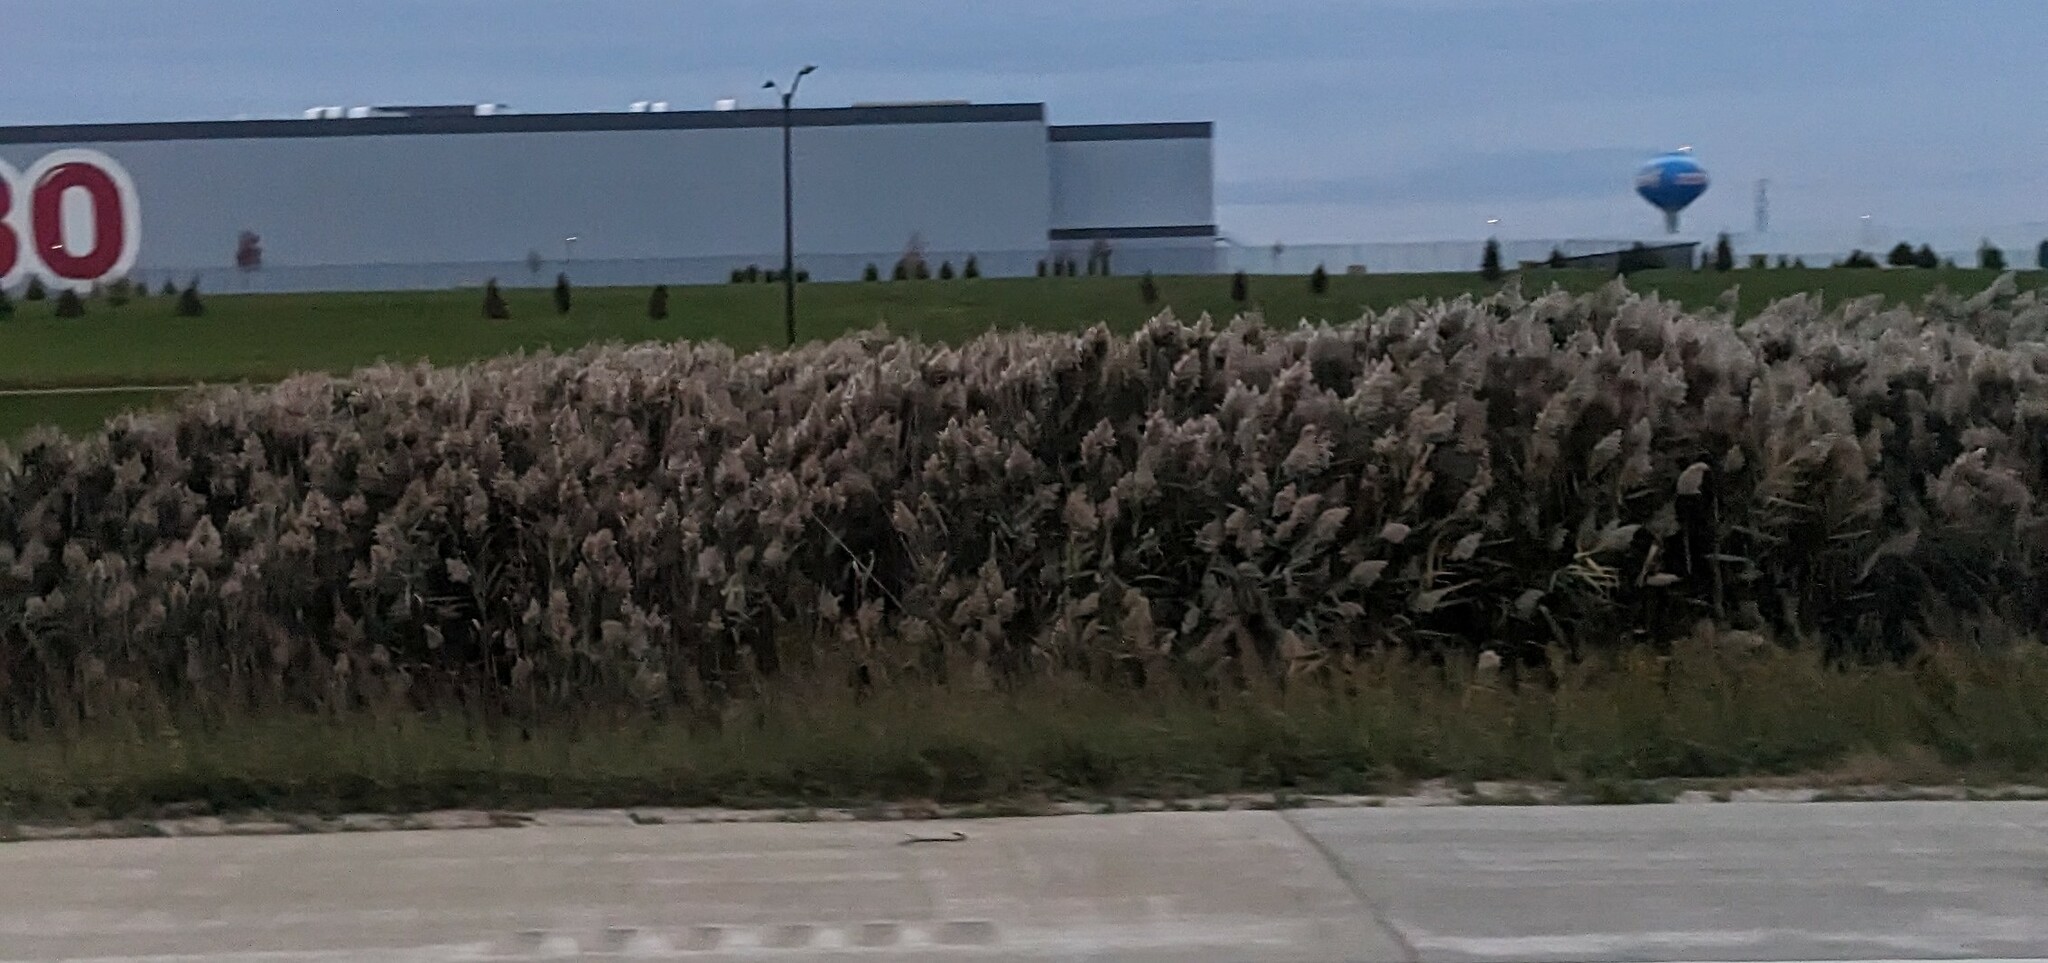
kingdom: Plantae
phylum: Tracheophyta
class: Liliopsida
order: Poales
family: Poaceae
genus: Phragmites
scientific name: Phragmites australis
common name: Common reed
